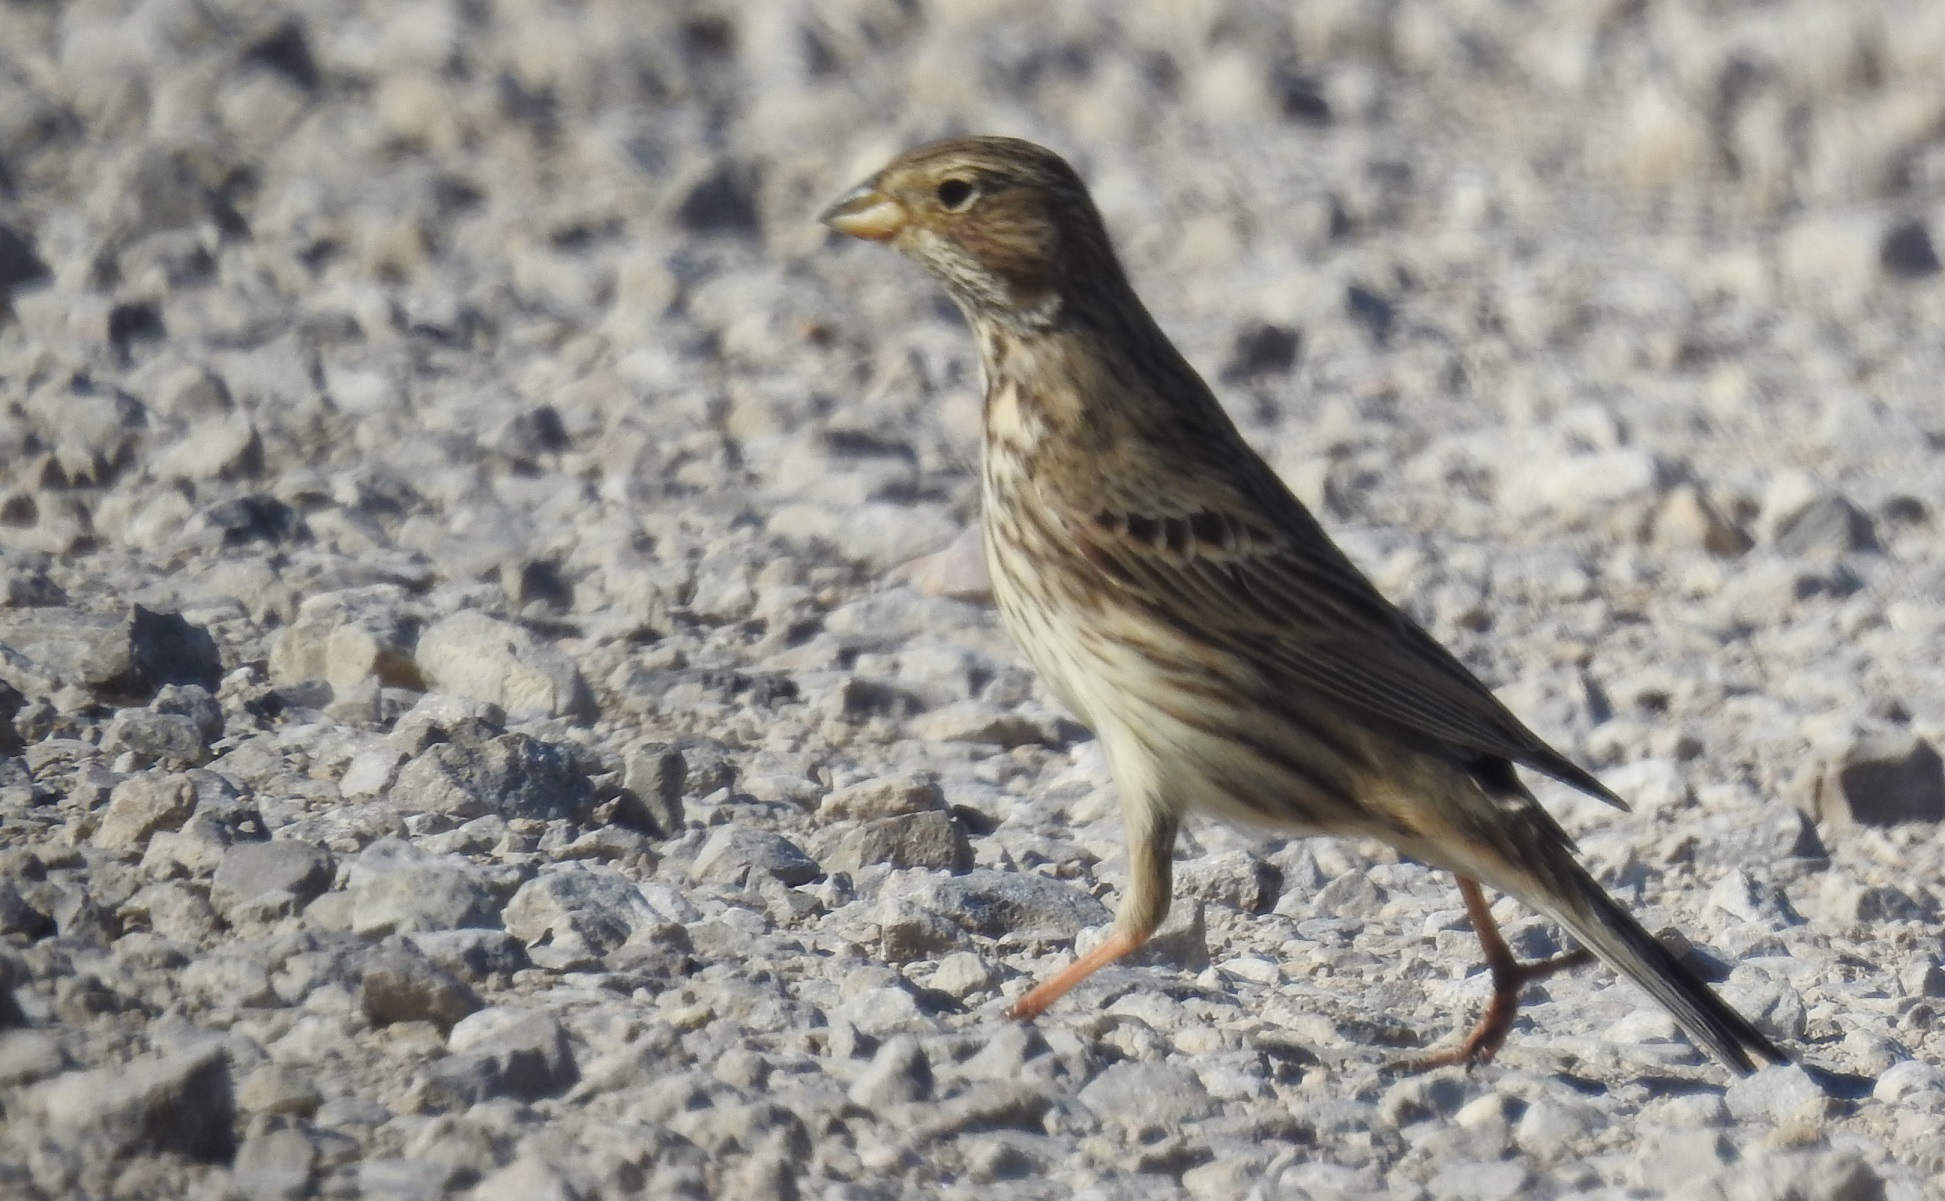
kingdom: Animalia
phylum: Chordata
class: Aves
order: Passeriformes
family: Emberizidae
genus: Emberiza
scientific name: Emberiza calandra
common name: Corn bunting
